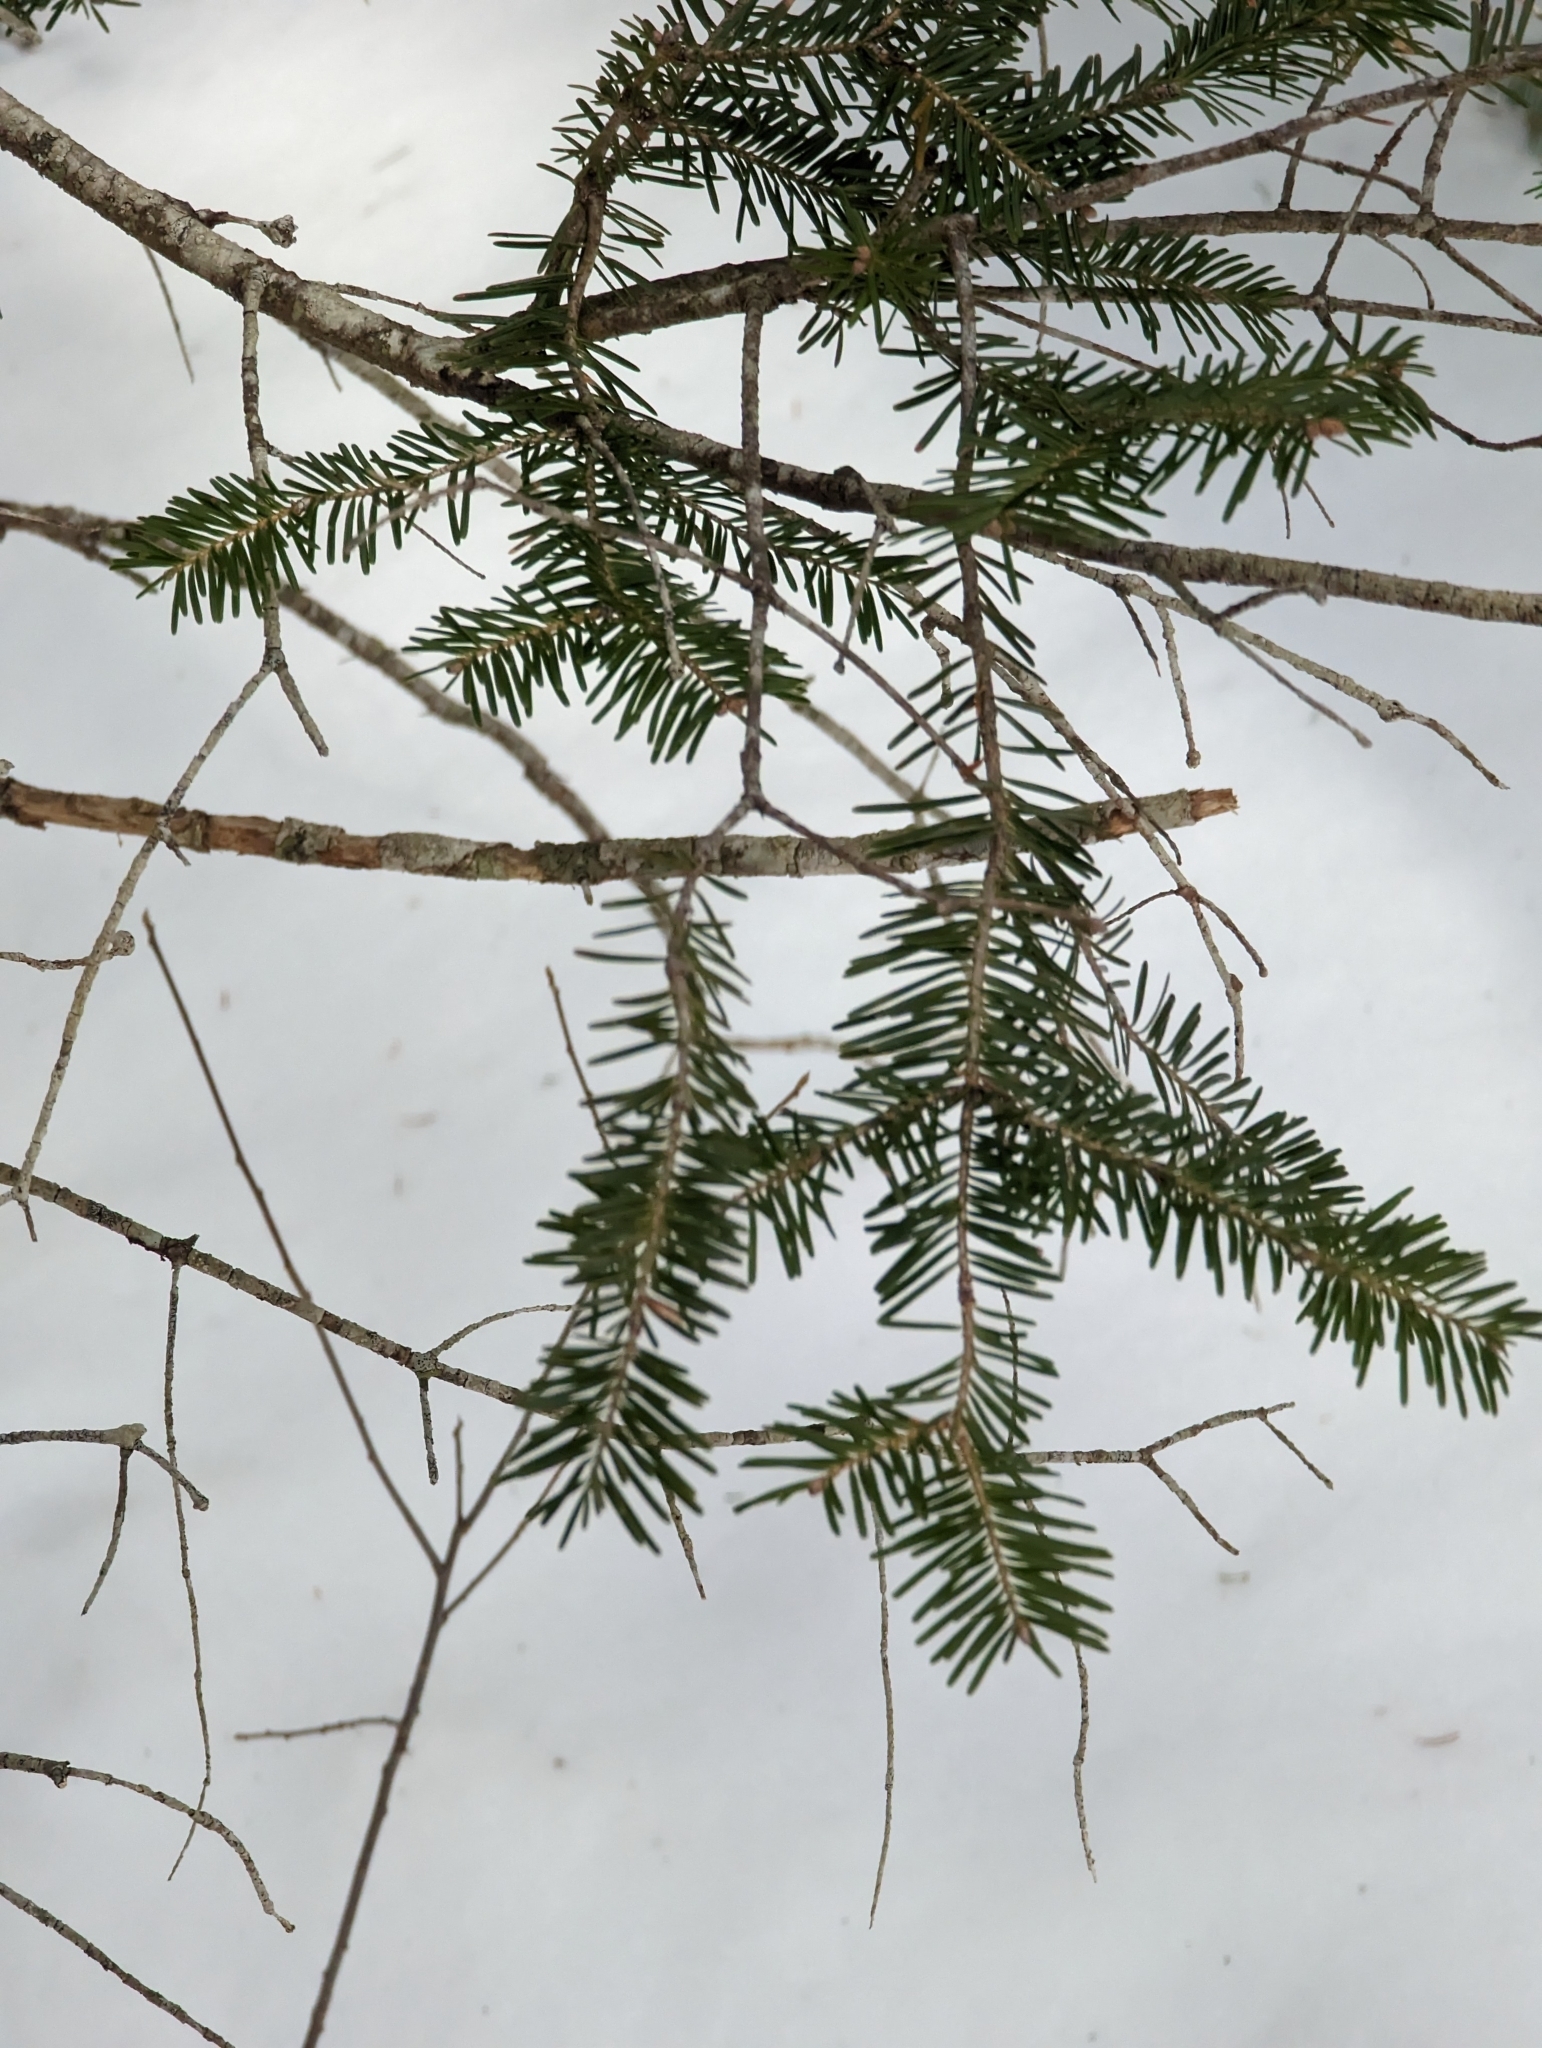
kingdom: Plantae
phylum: Tracheophyta
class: Pinopsida
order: Pinales
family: Pinaceae
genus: Abies
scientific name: Abies balsamea
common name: Balsam fir
